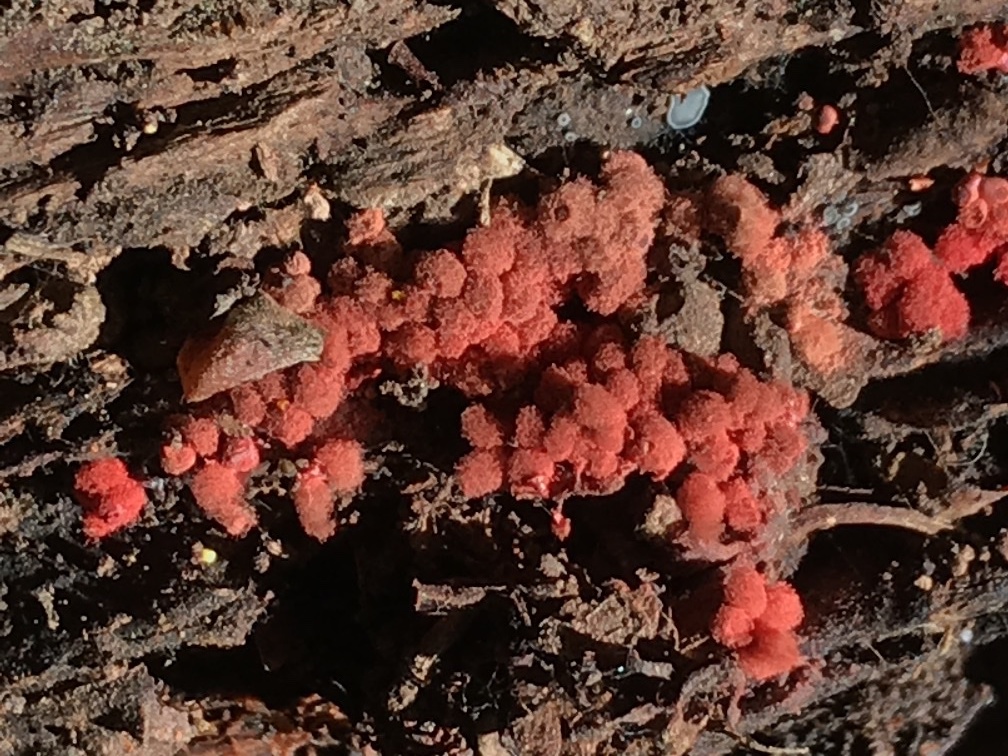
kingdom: Protozoa
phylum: Mycetozoa
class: Myxomycetes
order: Trichiales
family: Arcyriaceae
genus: Arcyria
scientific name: Arcyria denudata
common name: Carnival candy slime mold
